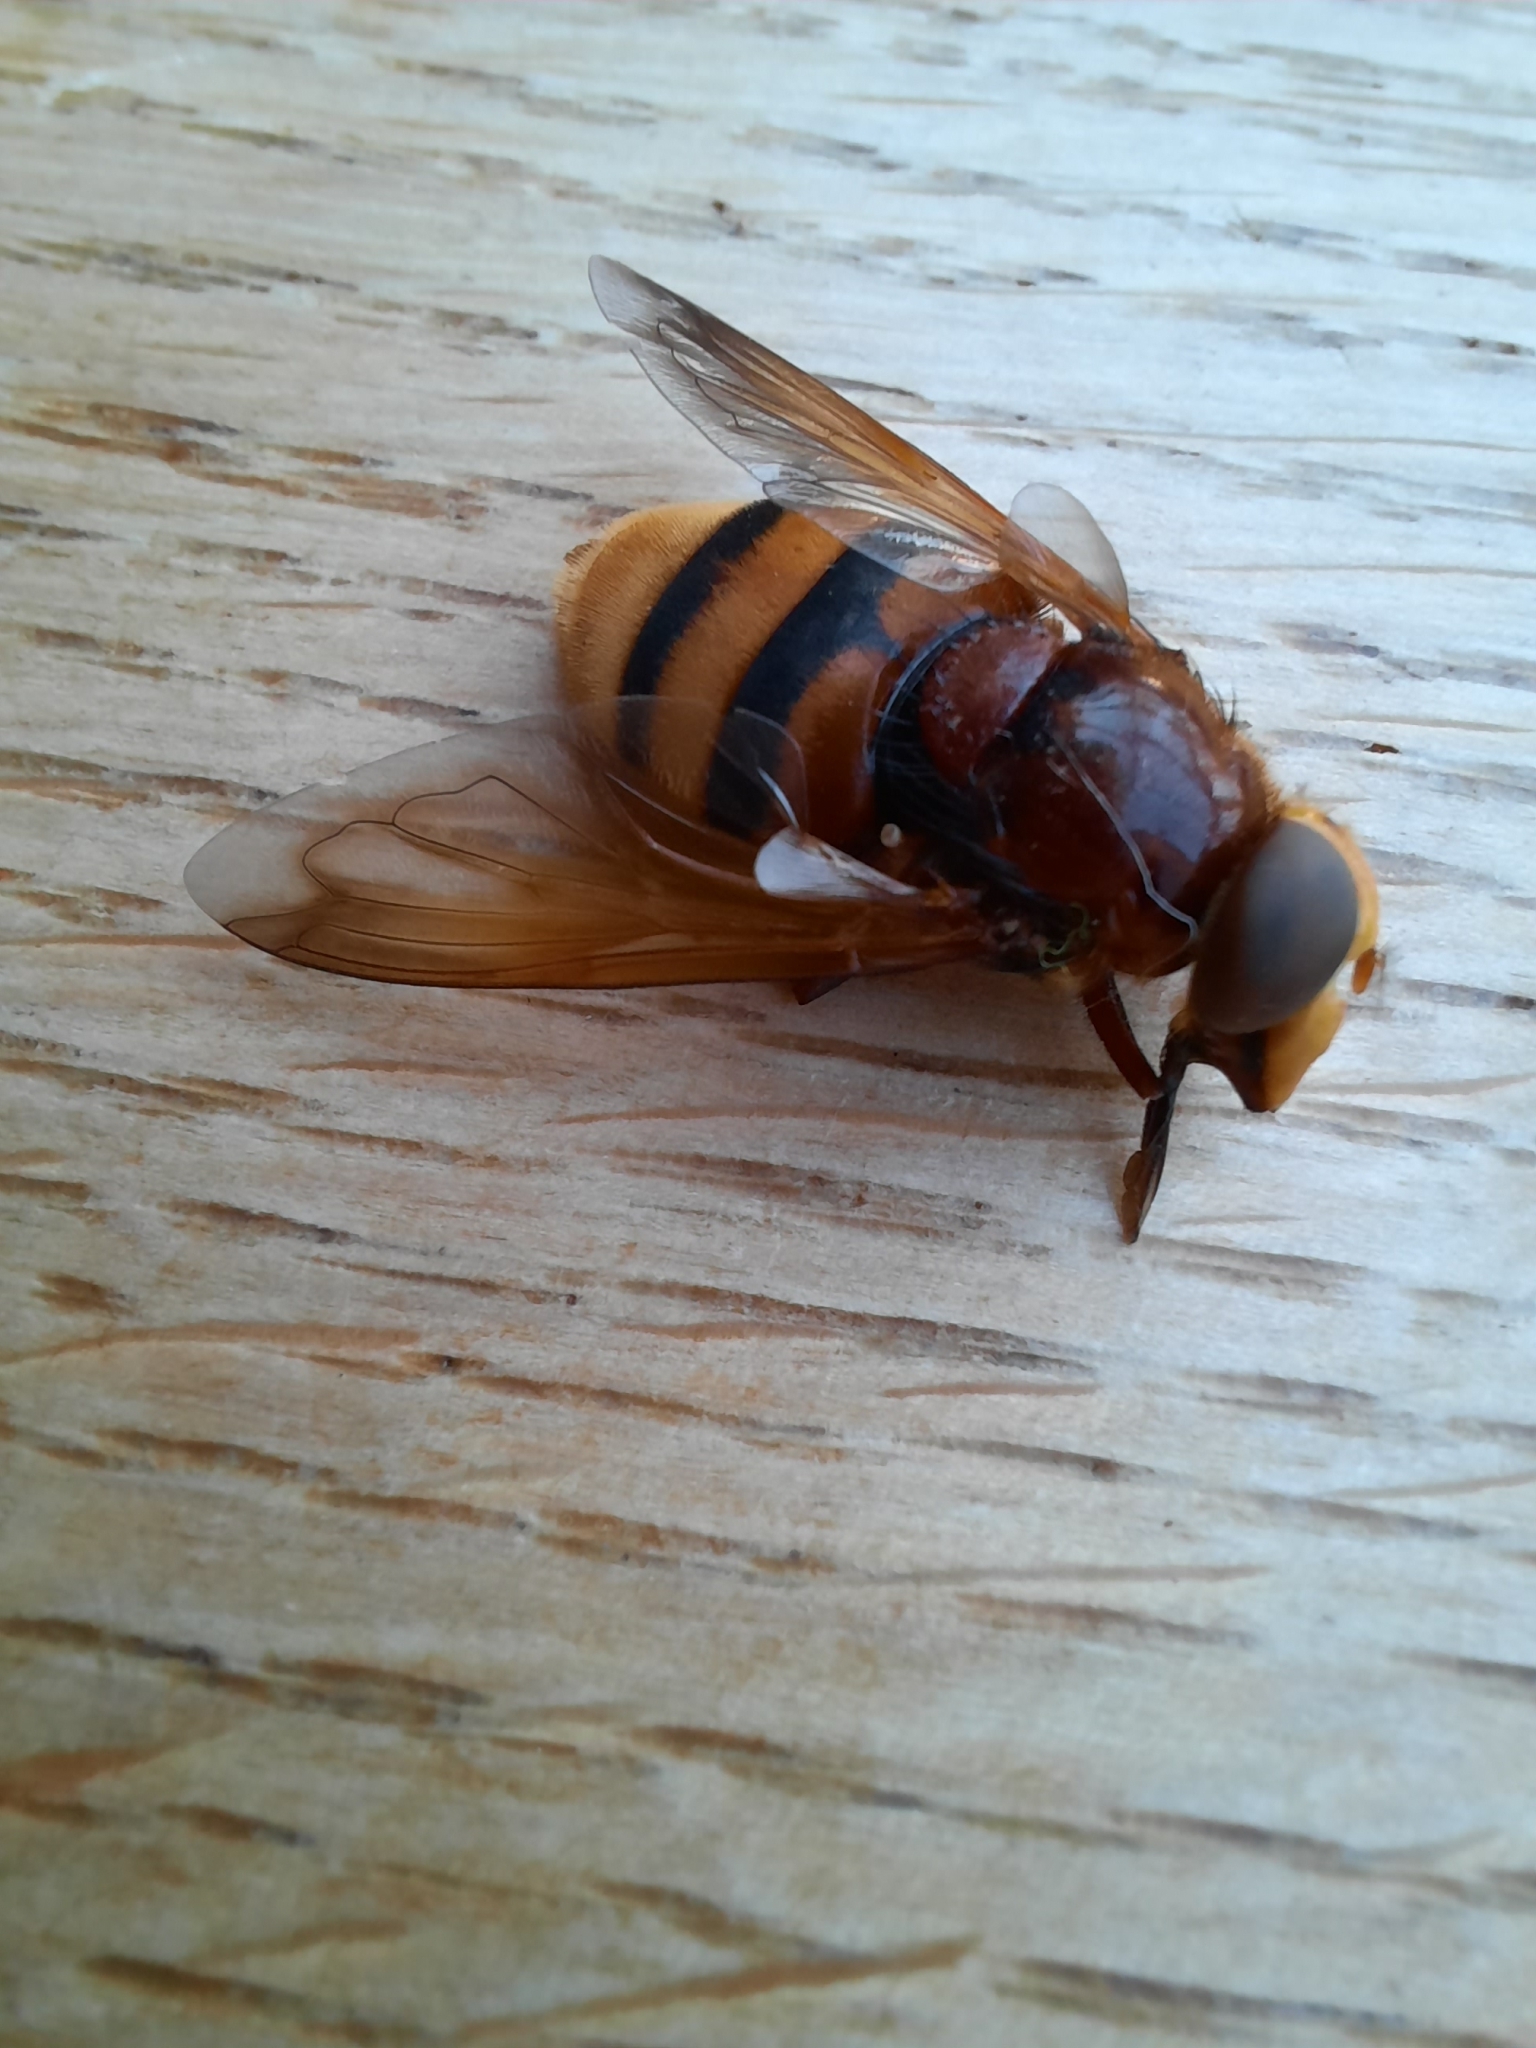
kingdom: Animalia
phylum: Arthropoda
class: Insecta
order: Diptera
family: Syrphidae
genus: Volucella
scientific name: Volucella zonaria
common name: Hornet hoverfly
